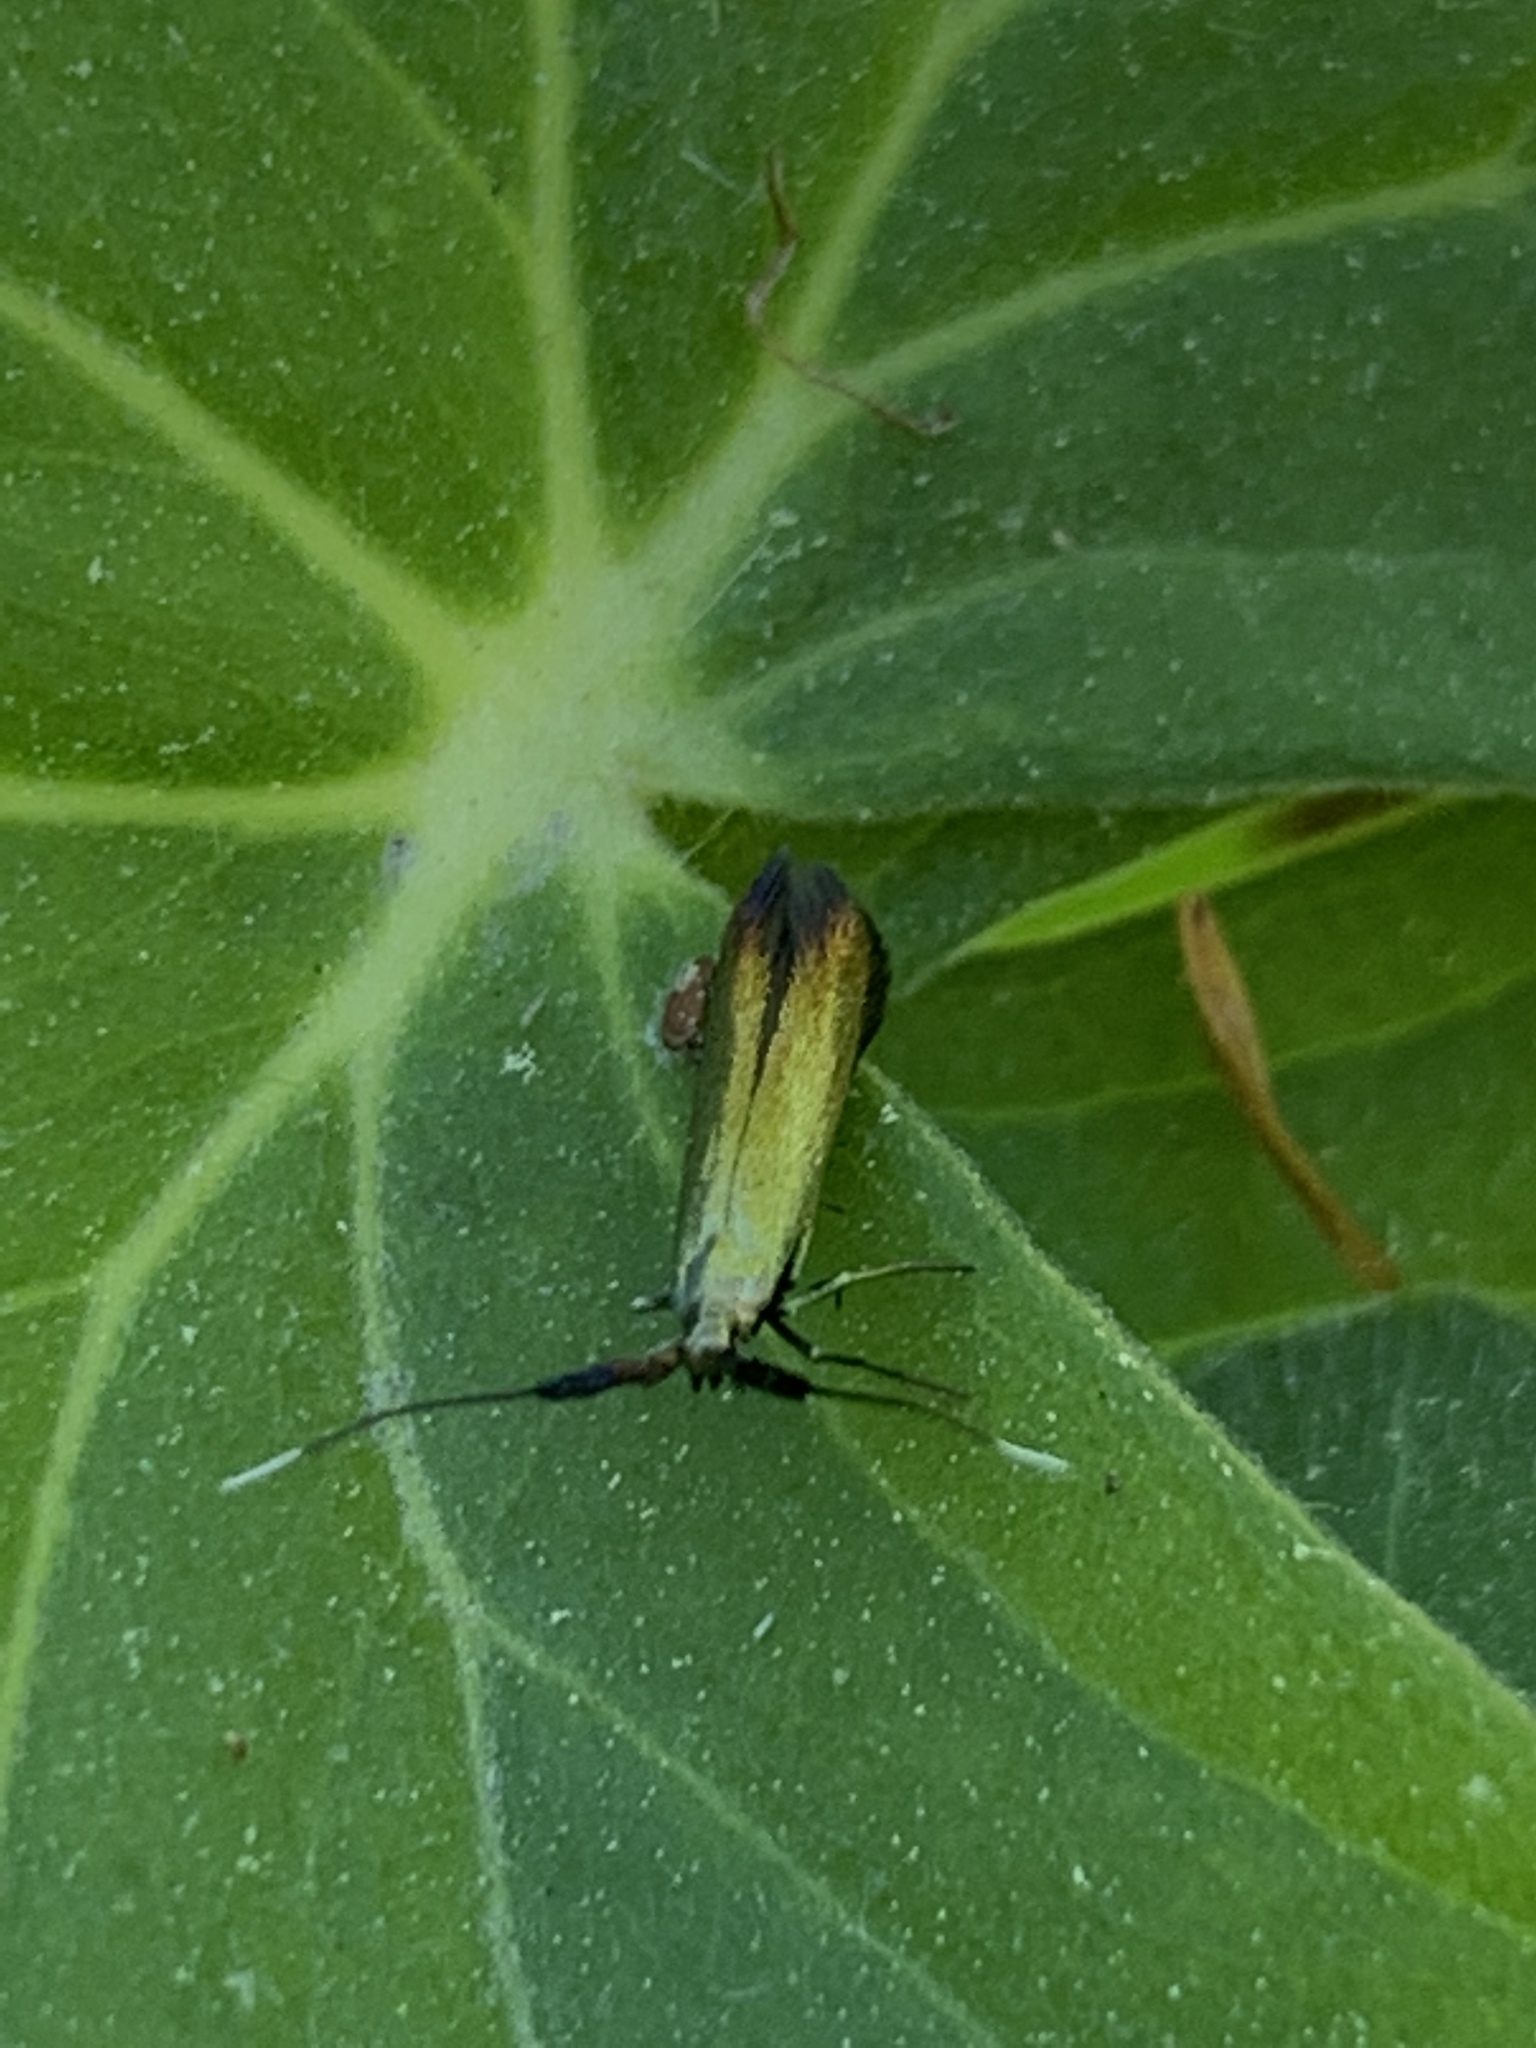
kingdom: Animalia
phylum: Arthropoda
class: Insecta
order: Lepidoptera
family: Coleophoridae
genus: Coleophora
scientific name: Coleophora mayrella
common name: Meadow case-bearer
